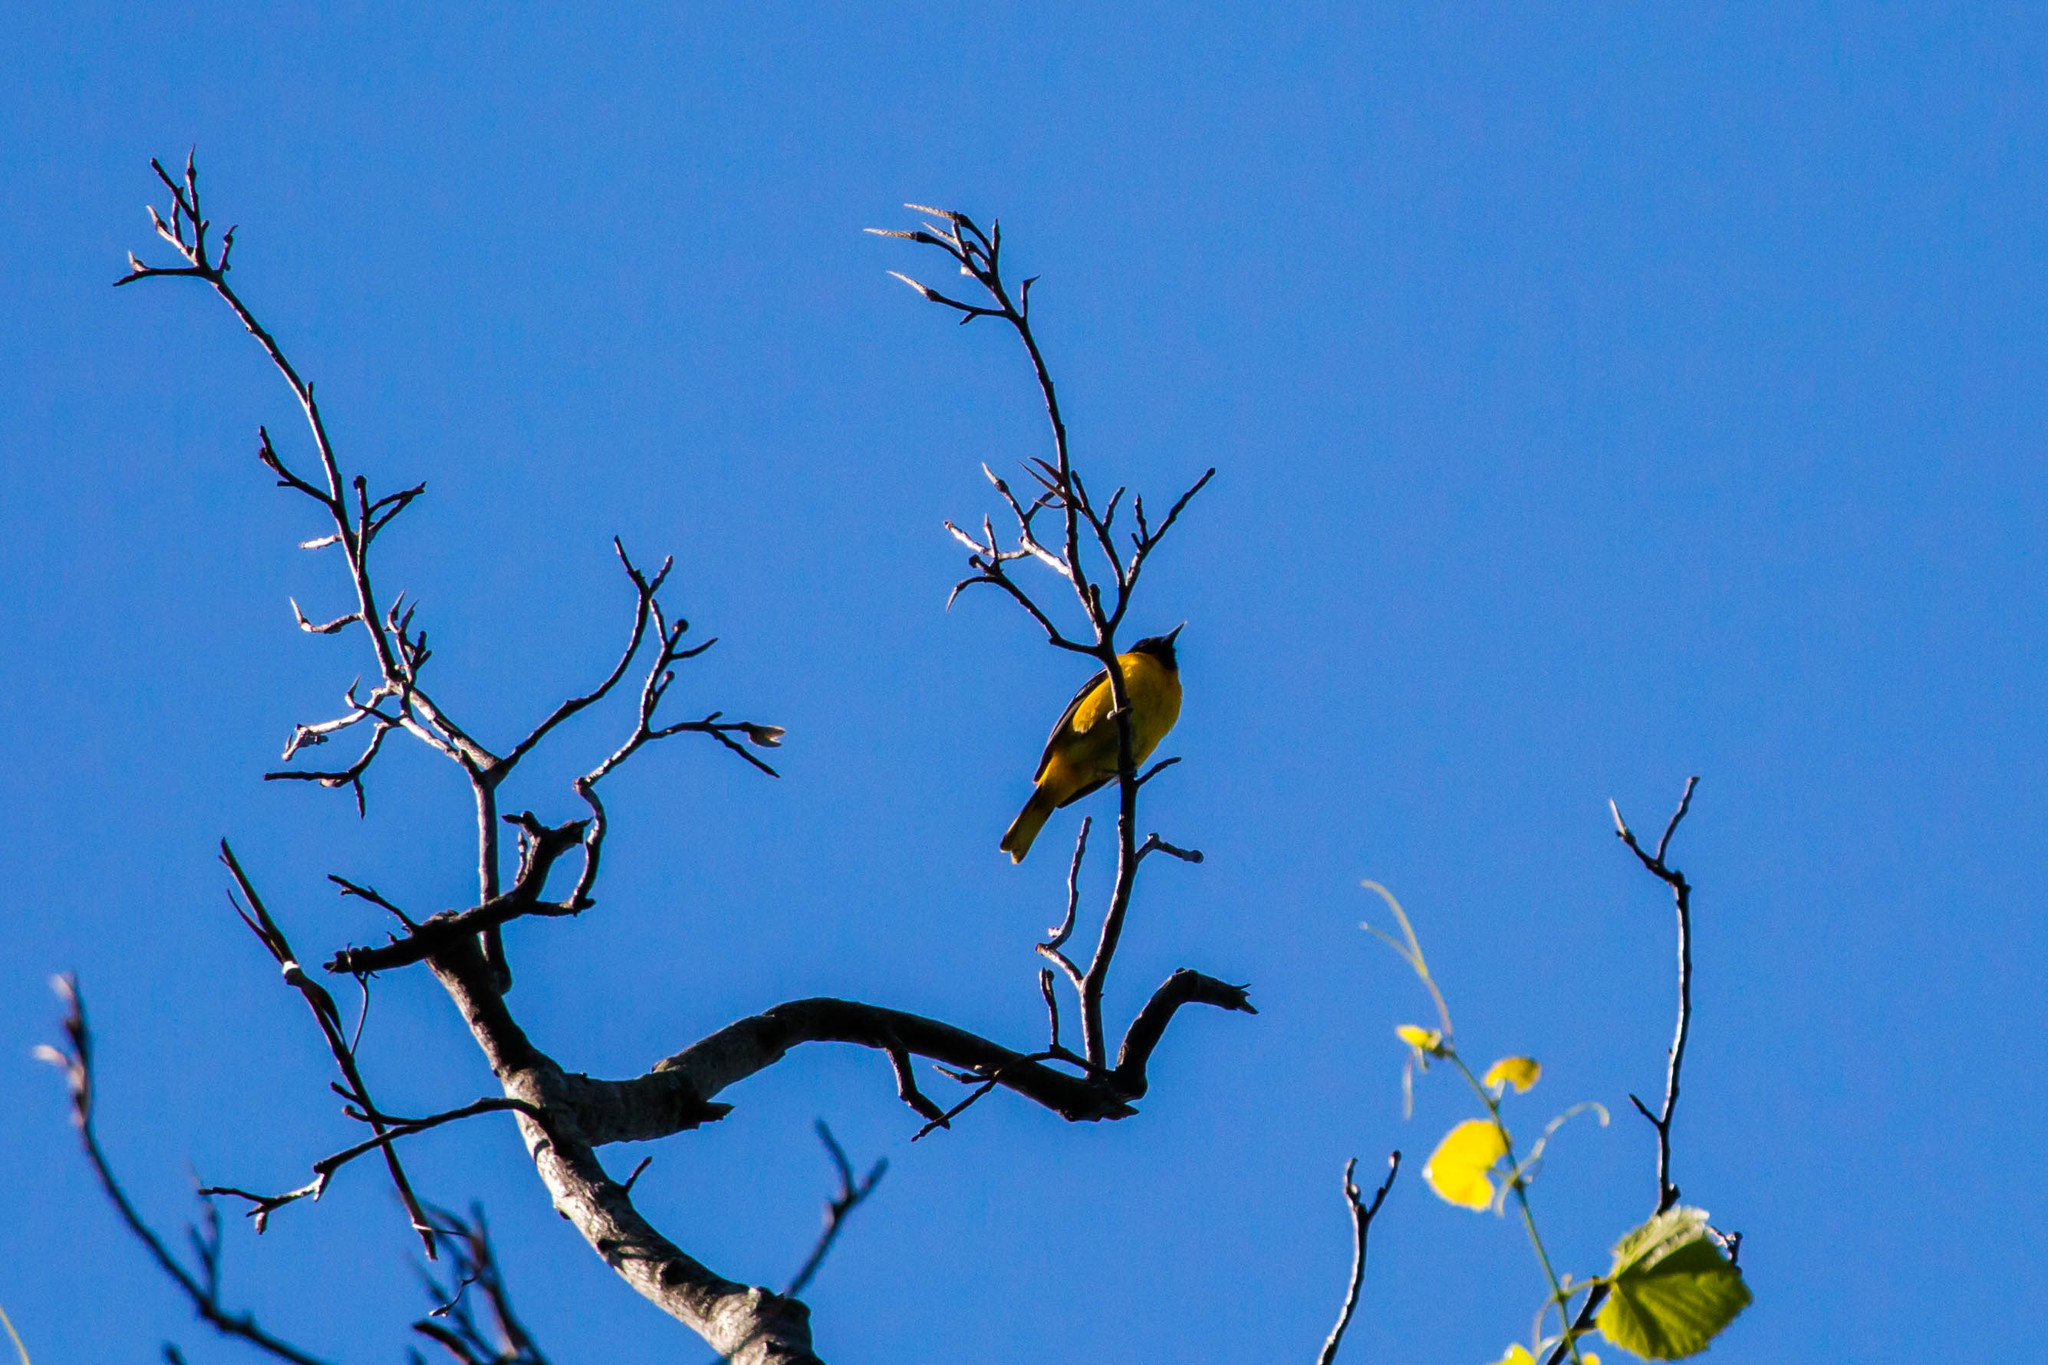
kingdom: Animalia
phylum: Chordata
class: Aves
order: Passeriformes
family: Icteridae
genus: Icterus
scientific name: Icterus galbula
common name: Baltimore oriole
